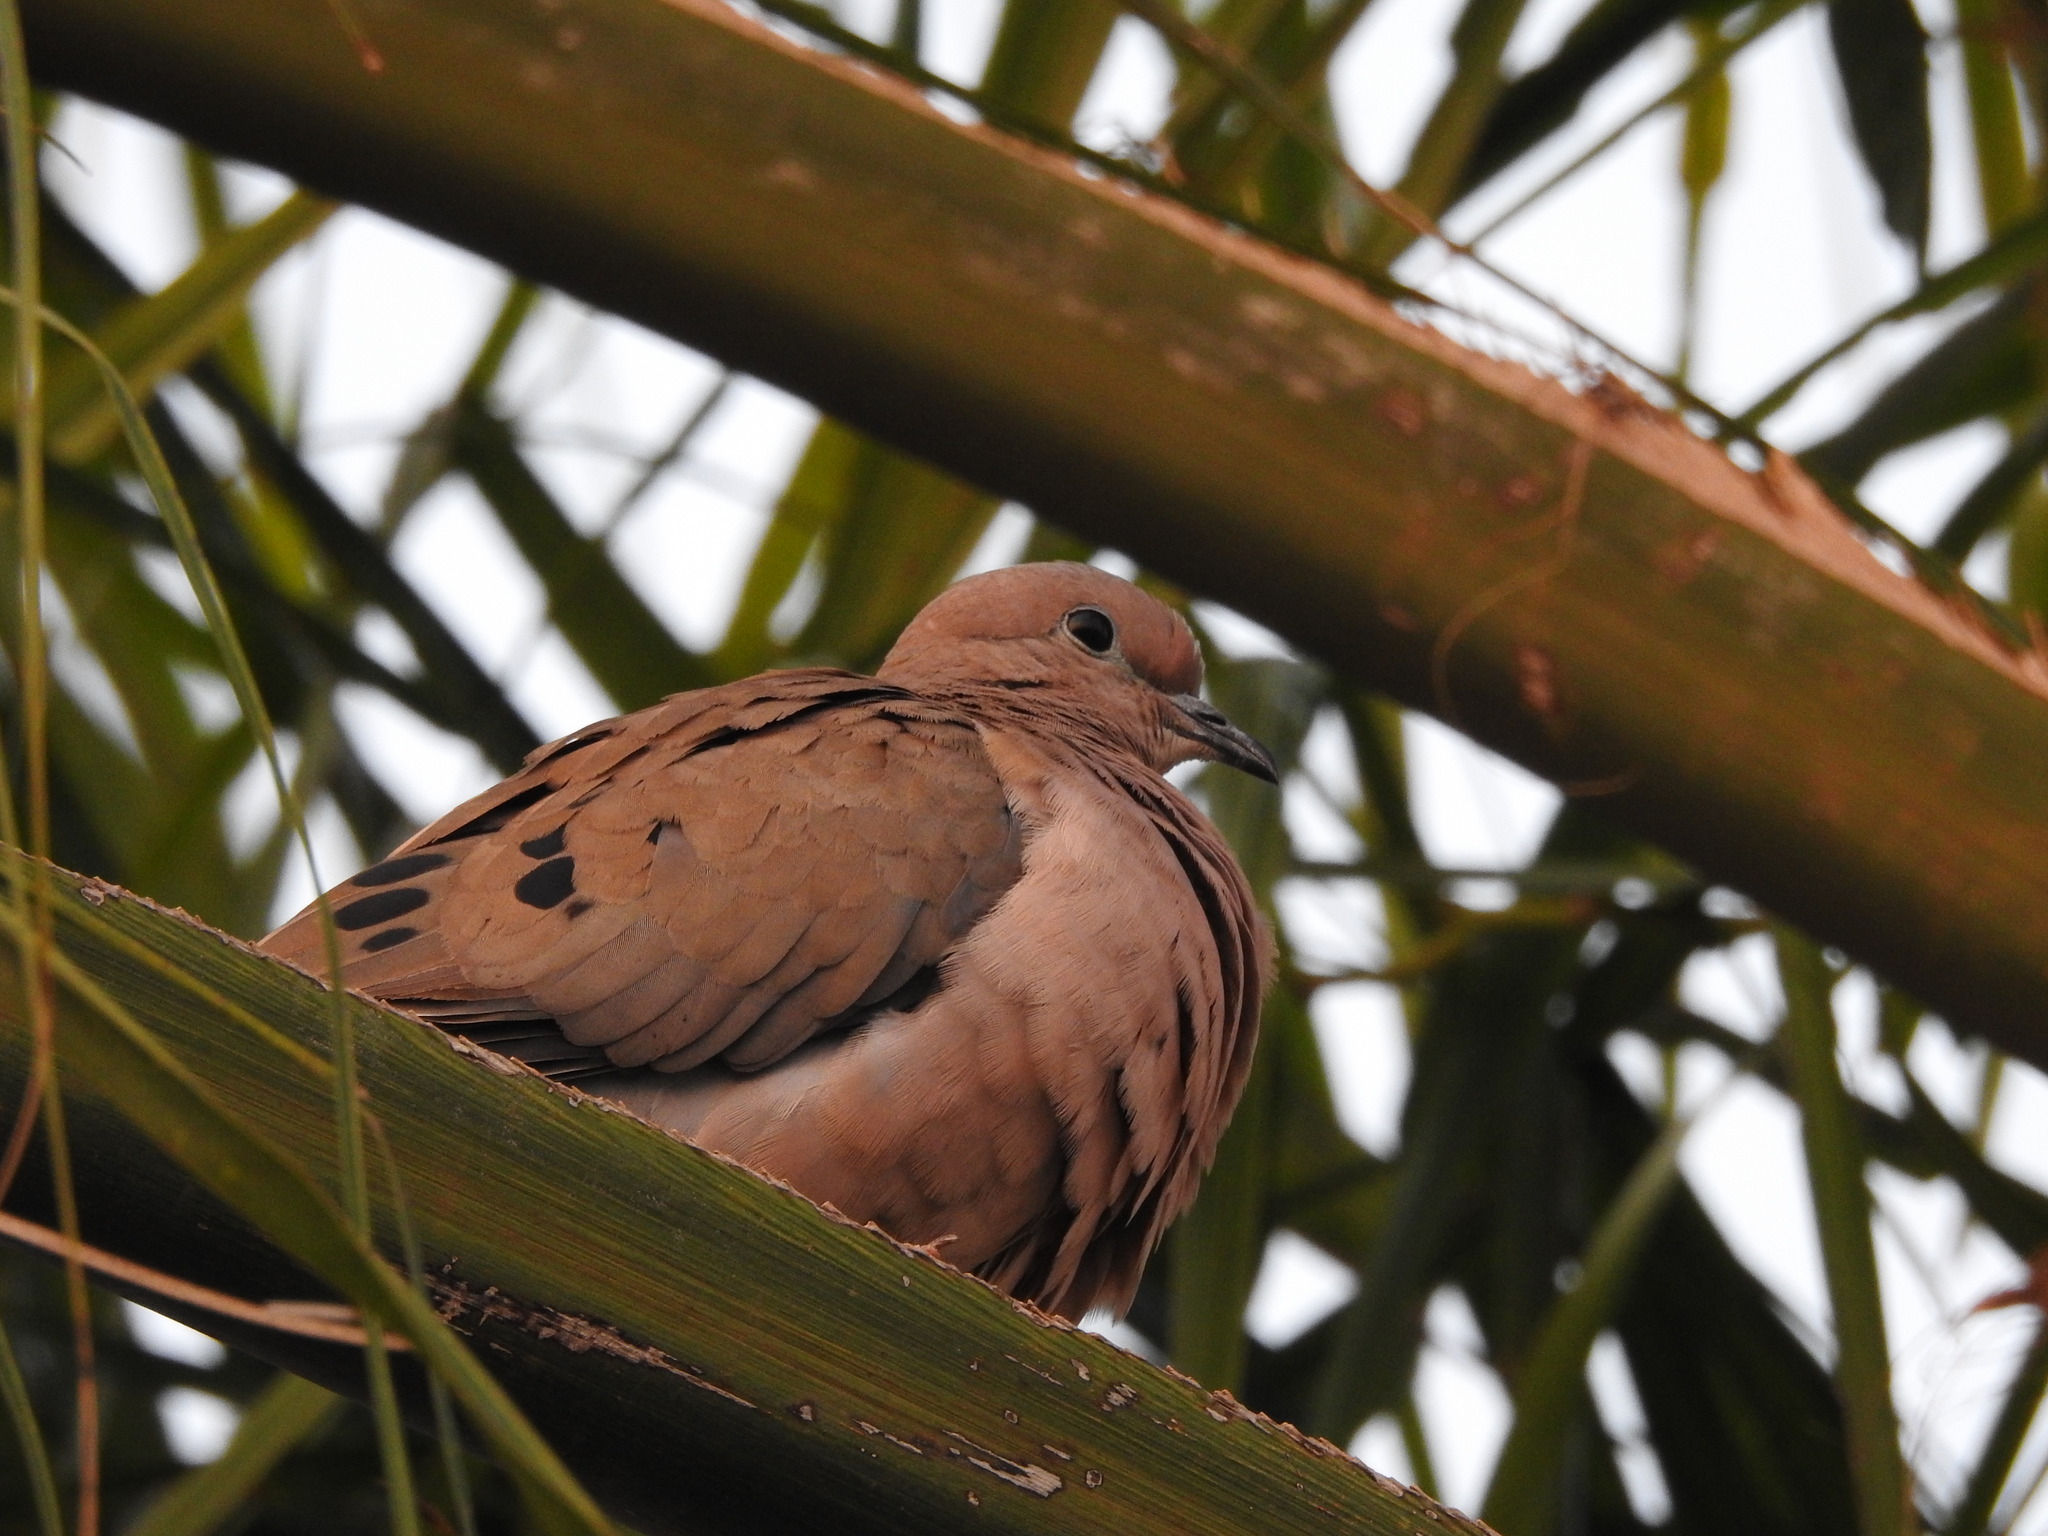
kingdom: Animalia
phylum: Chordata
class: Aves
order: Columbiformes
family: Columbidae
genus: Zenaida
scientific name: Zenaida auriculata
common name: Eared dove
